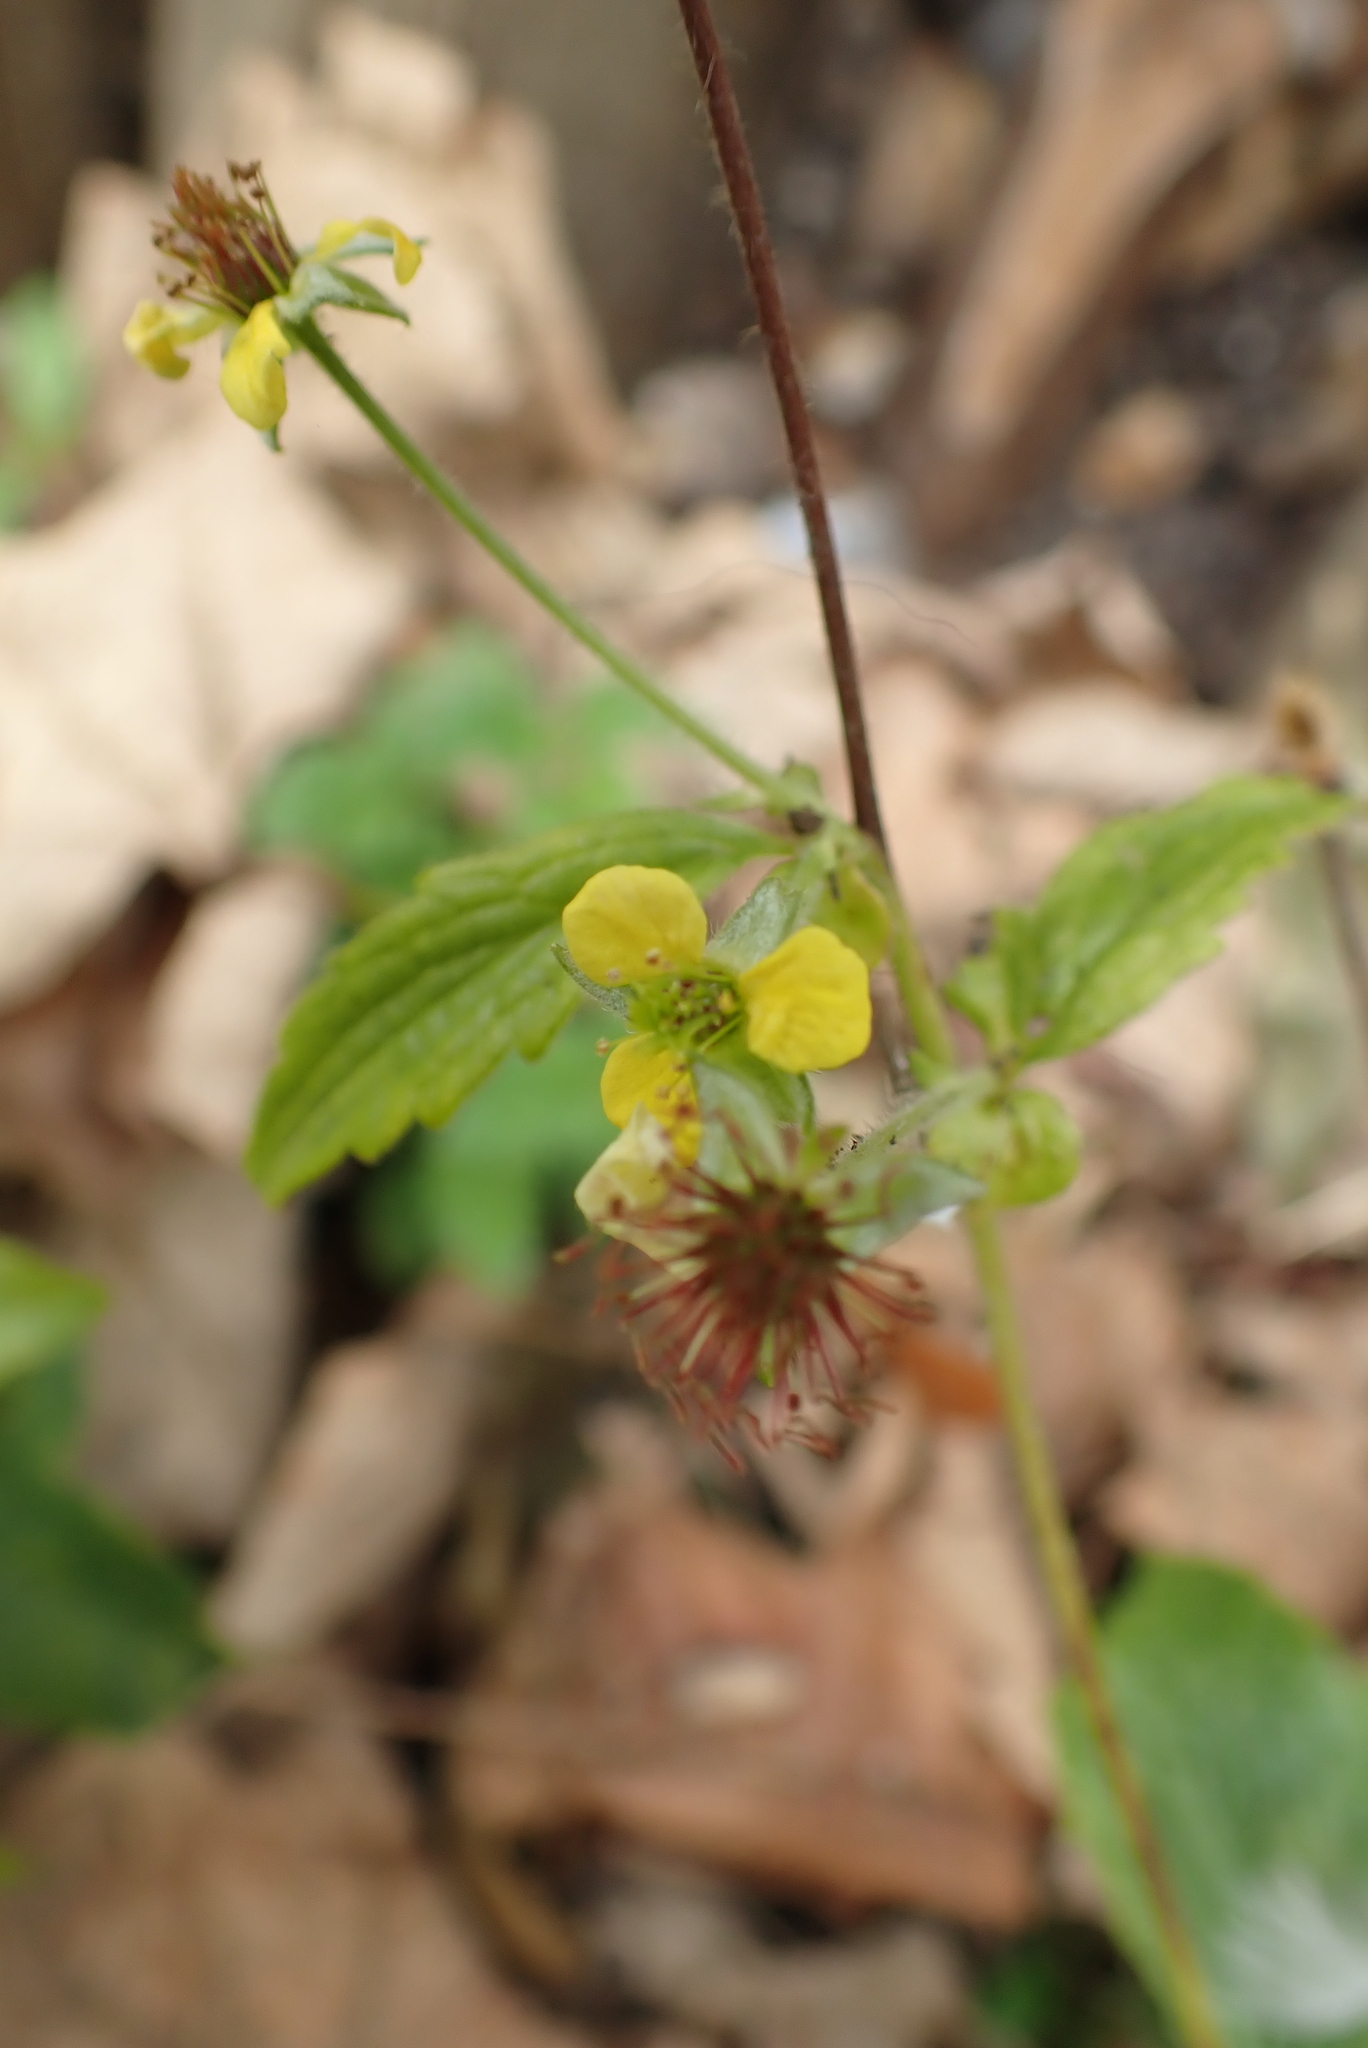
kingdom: Plantae
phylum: Tracheophyta
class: Magnoliopsida
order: Rosales
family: Rosaceae
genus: Geum
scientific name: Geum urbanum
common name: Wood avens
